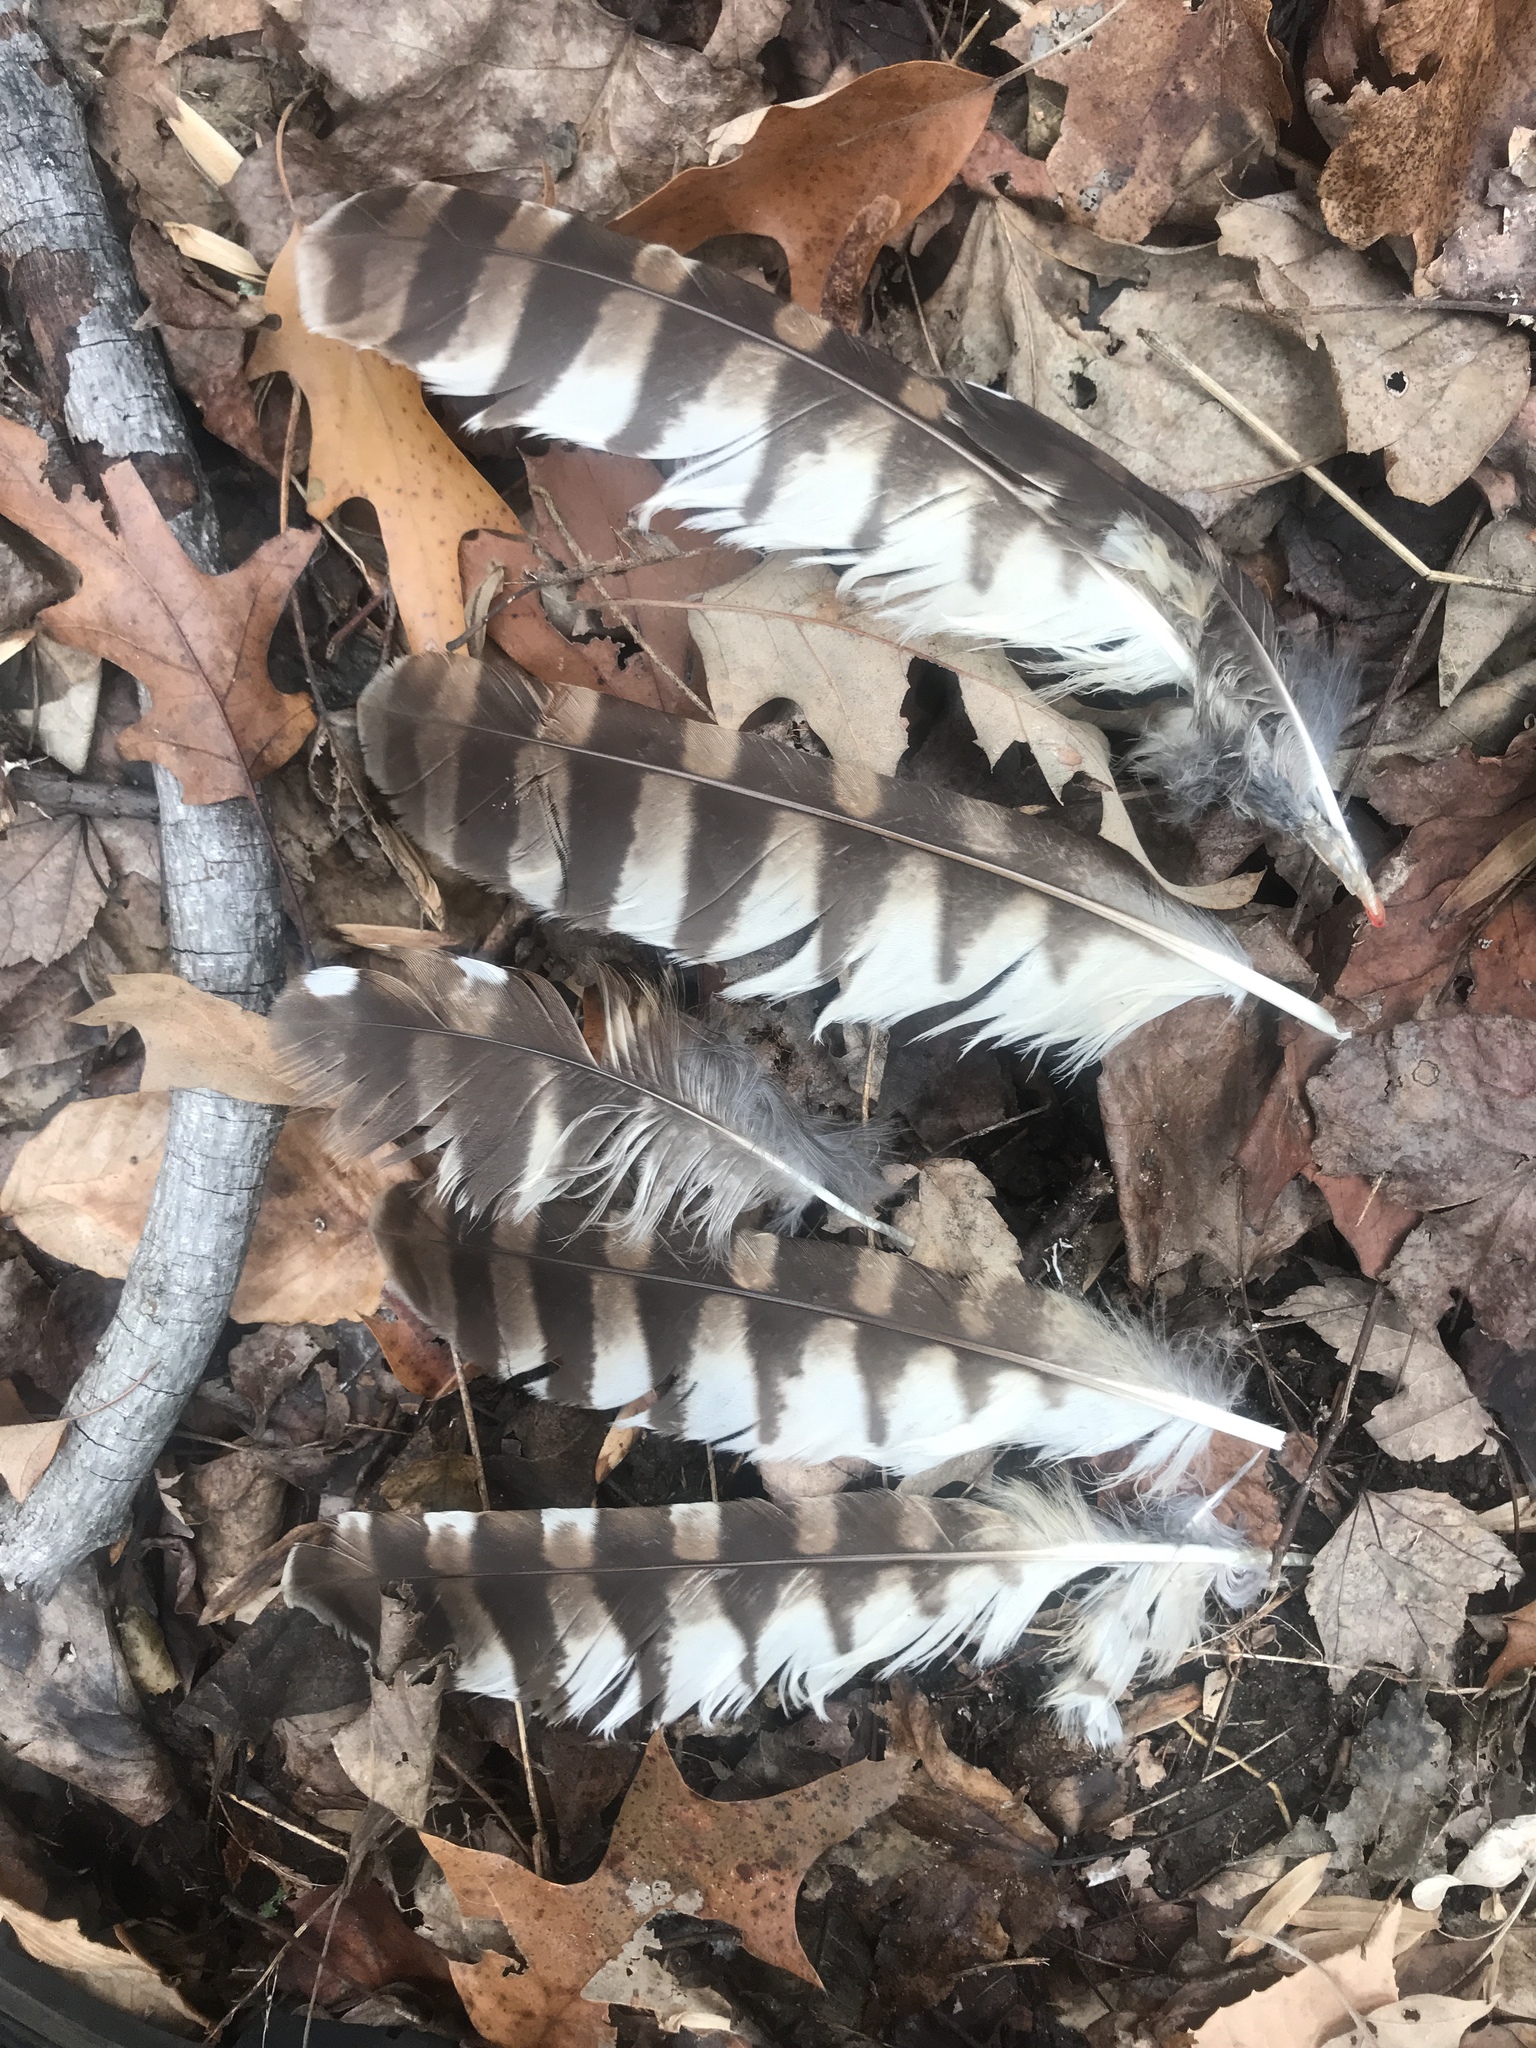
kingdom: Animalia
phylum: Chordata
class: Aves
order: Strigiformes
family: Strigidae
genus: Strix
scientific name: Strix varia
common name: Barred owl
